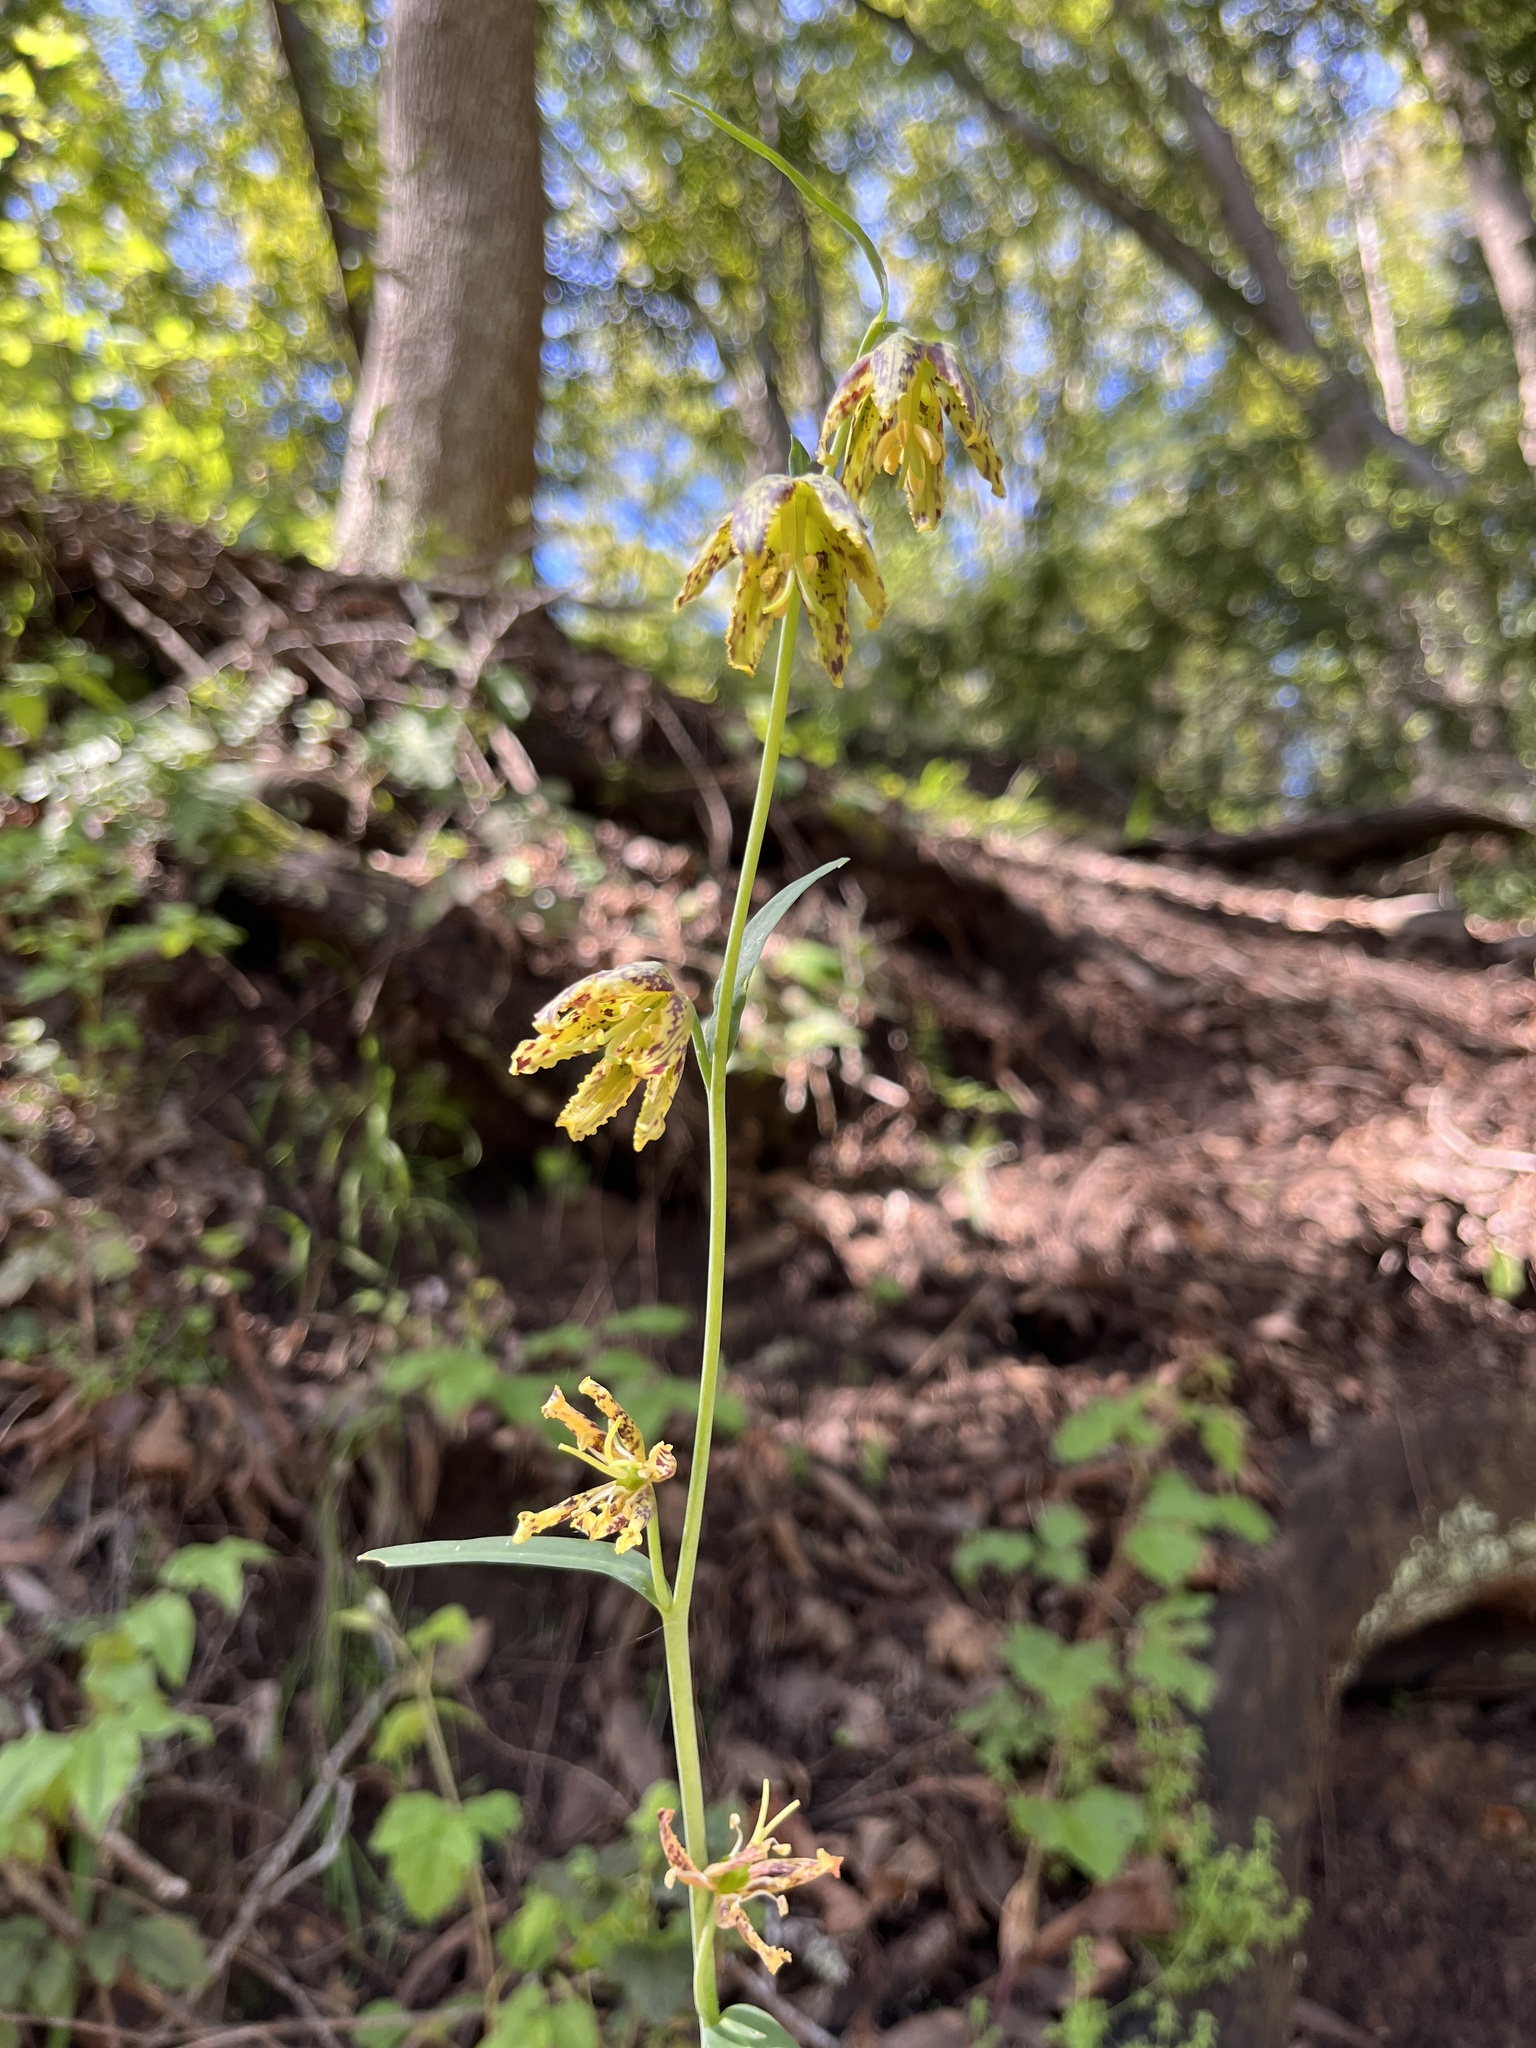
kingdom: Plantae
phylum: Tracheophyta
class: Liliopsida
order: Liliales
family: Liliaceae
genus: Fritillaria
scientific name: Fritillaria affinis
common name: Ojai fritillary
